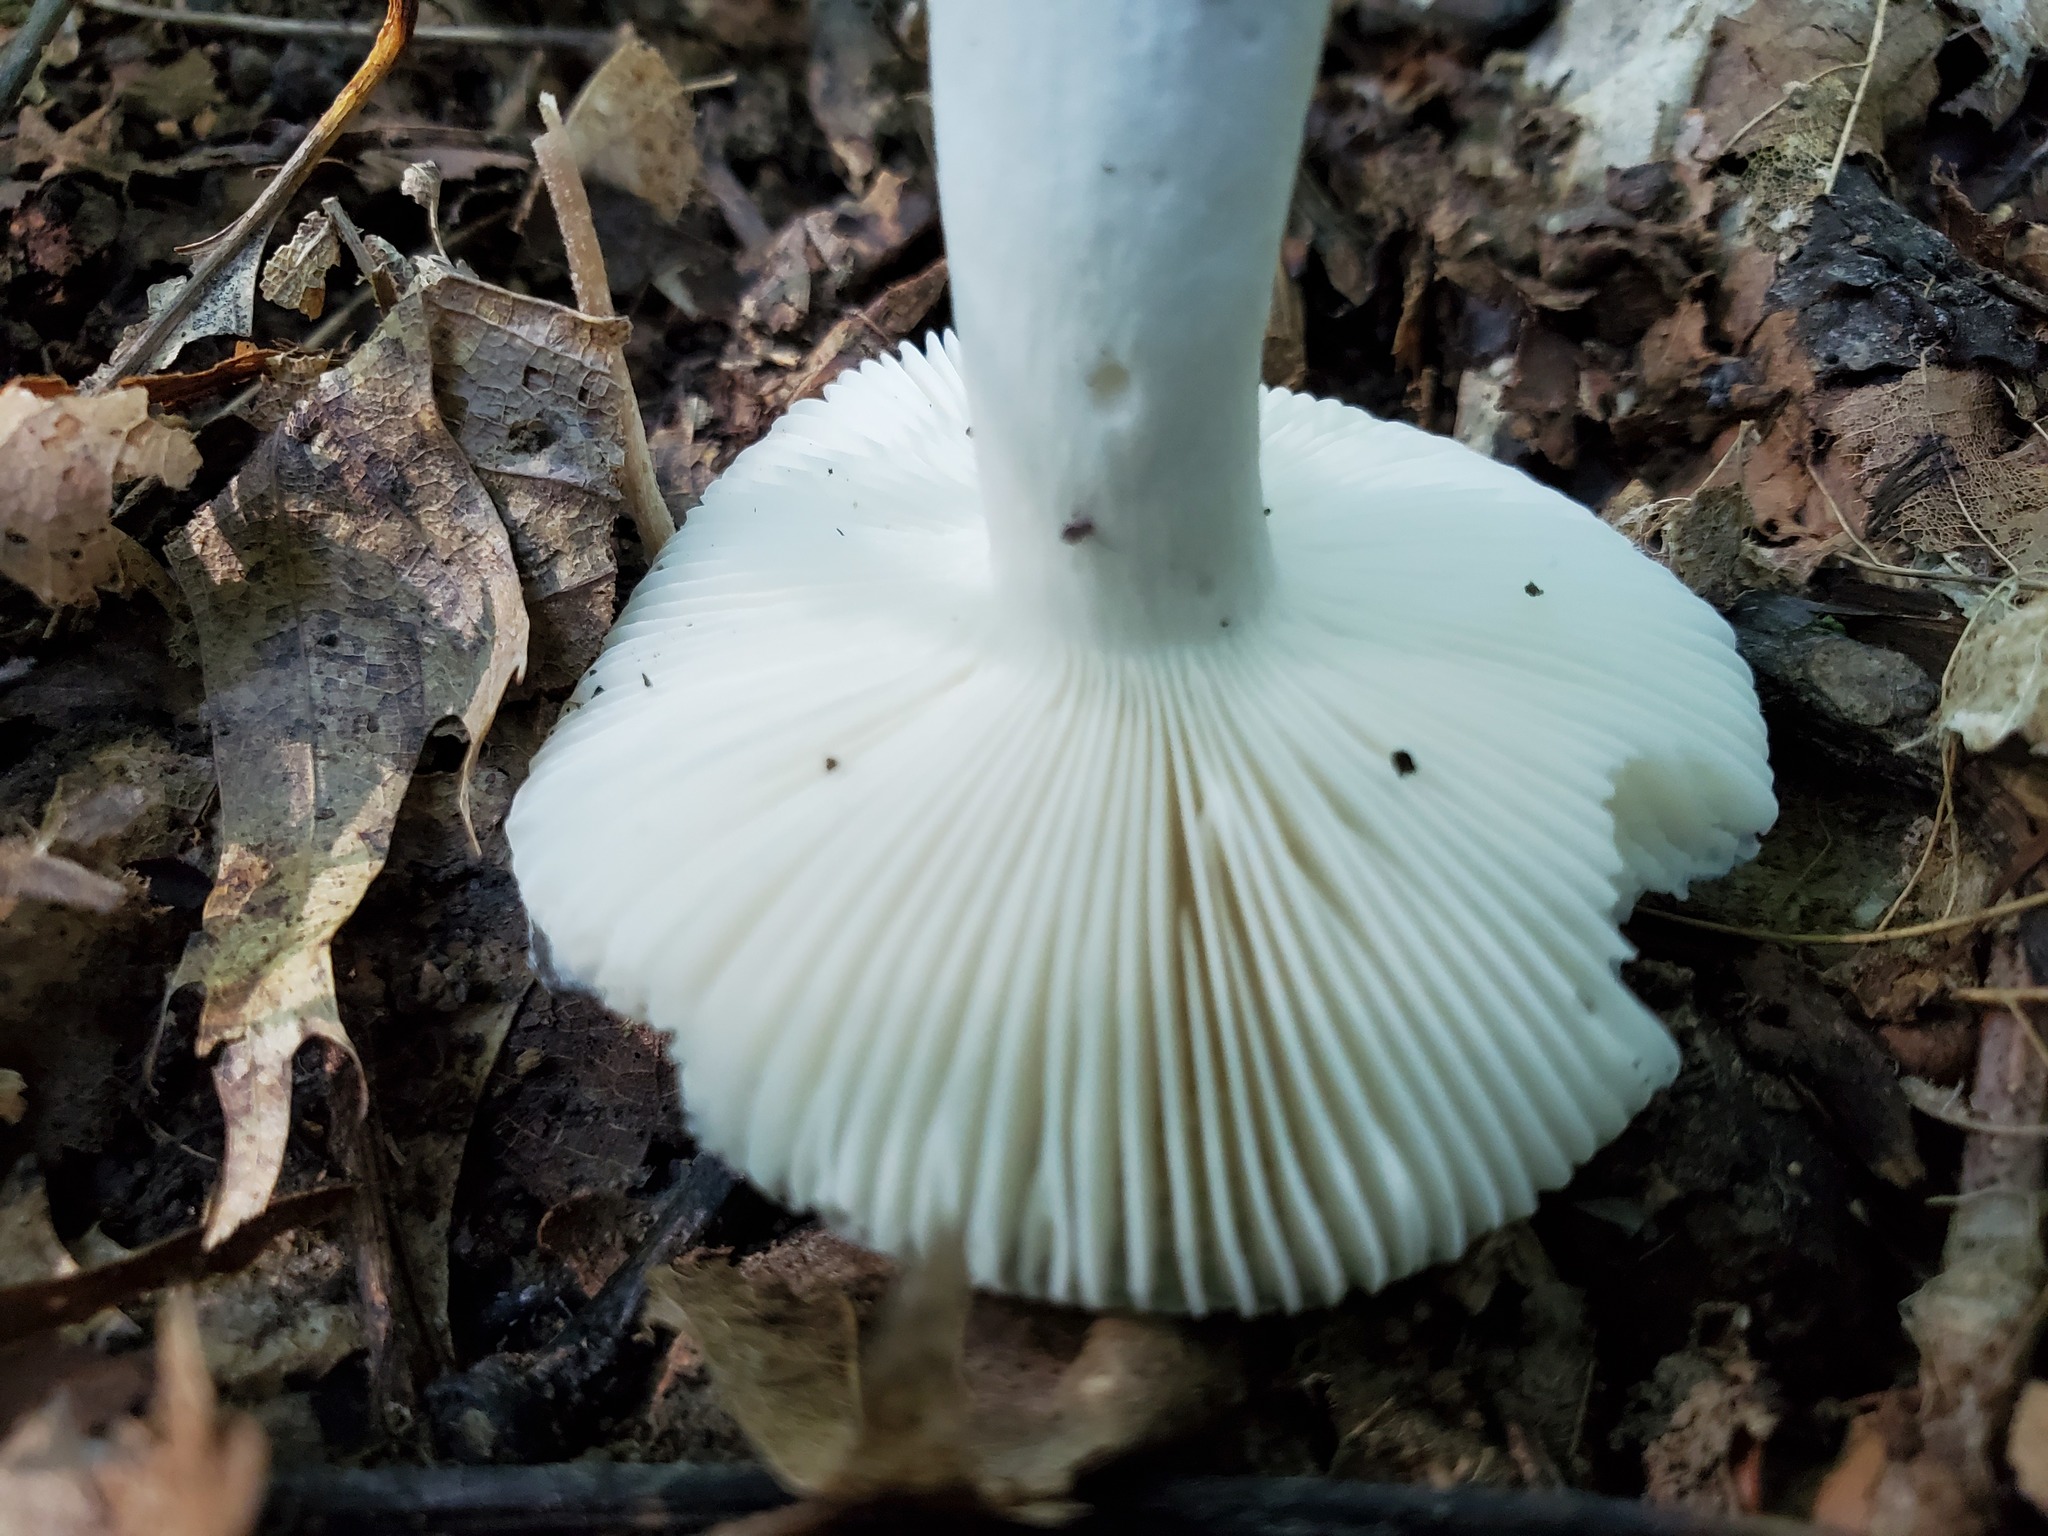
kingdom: Fungi
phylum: Basidiomycota
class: Agaricomycetes
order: Russulales
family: Russulaceae
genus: Russula
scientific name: Russula redolens
